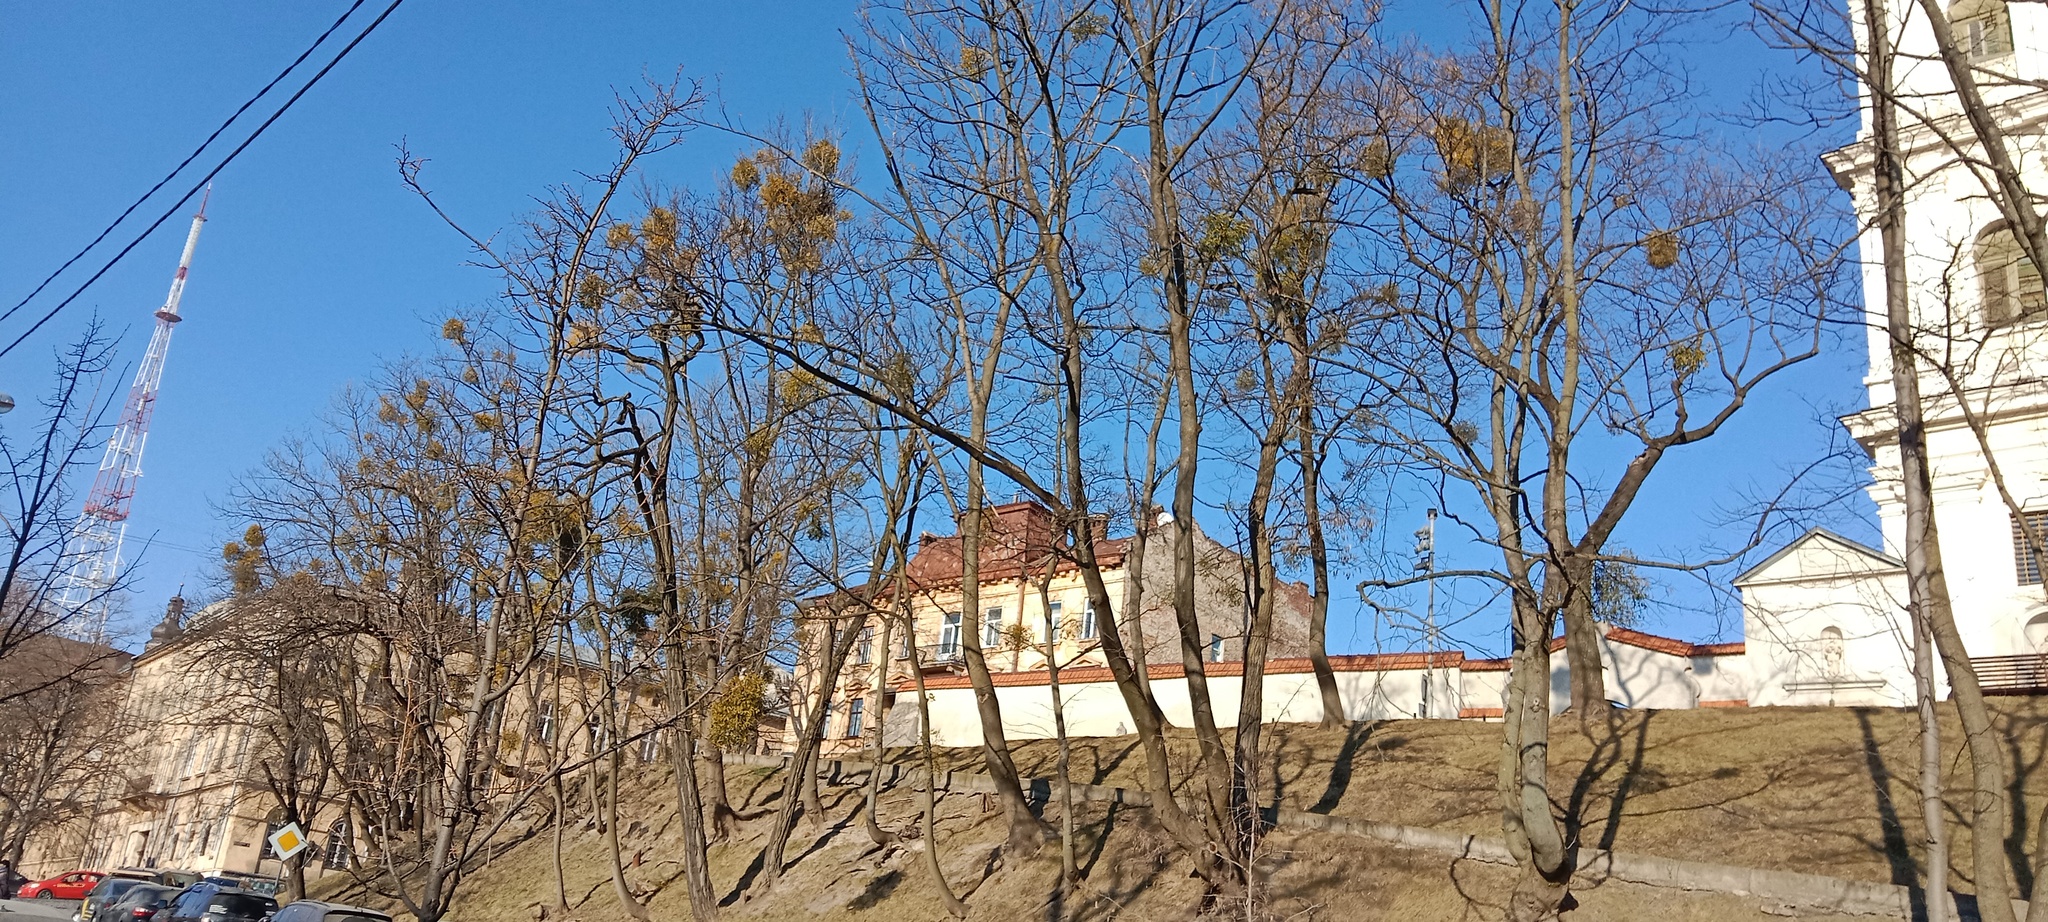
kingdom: Plantae
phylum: Tracheophyta
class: Magnoliopsida
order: Santalales
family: Viscaceae
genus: Viscum
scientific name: Viscum album
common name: Mistletoe
